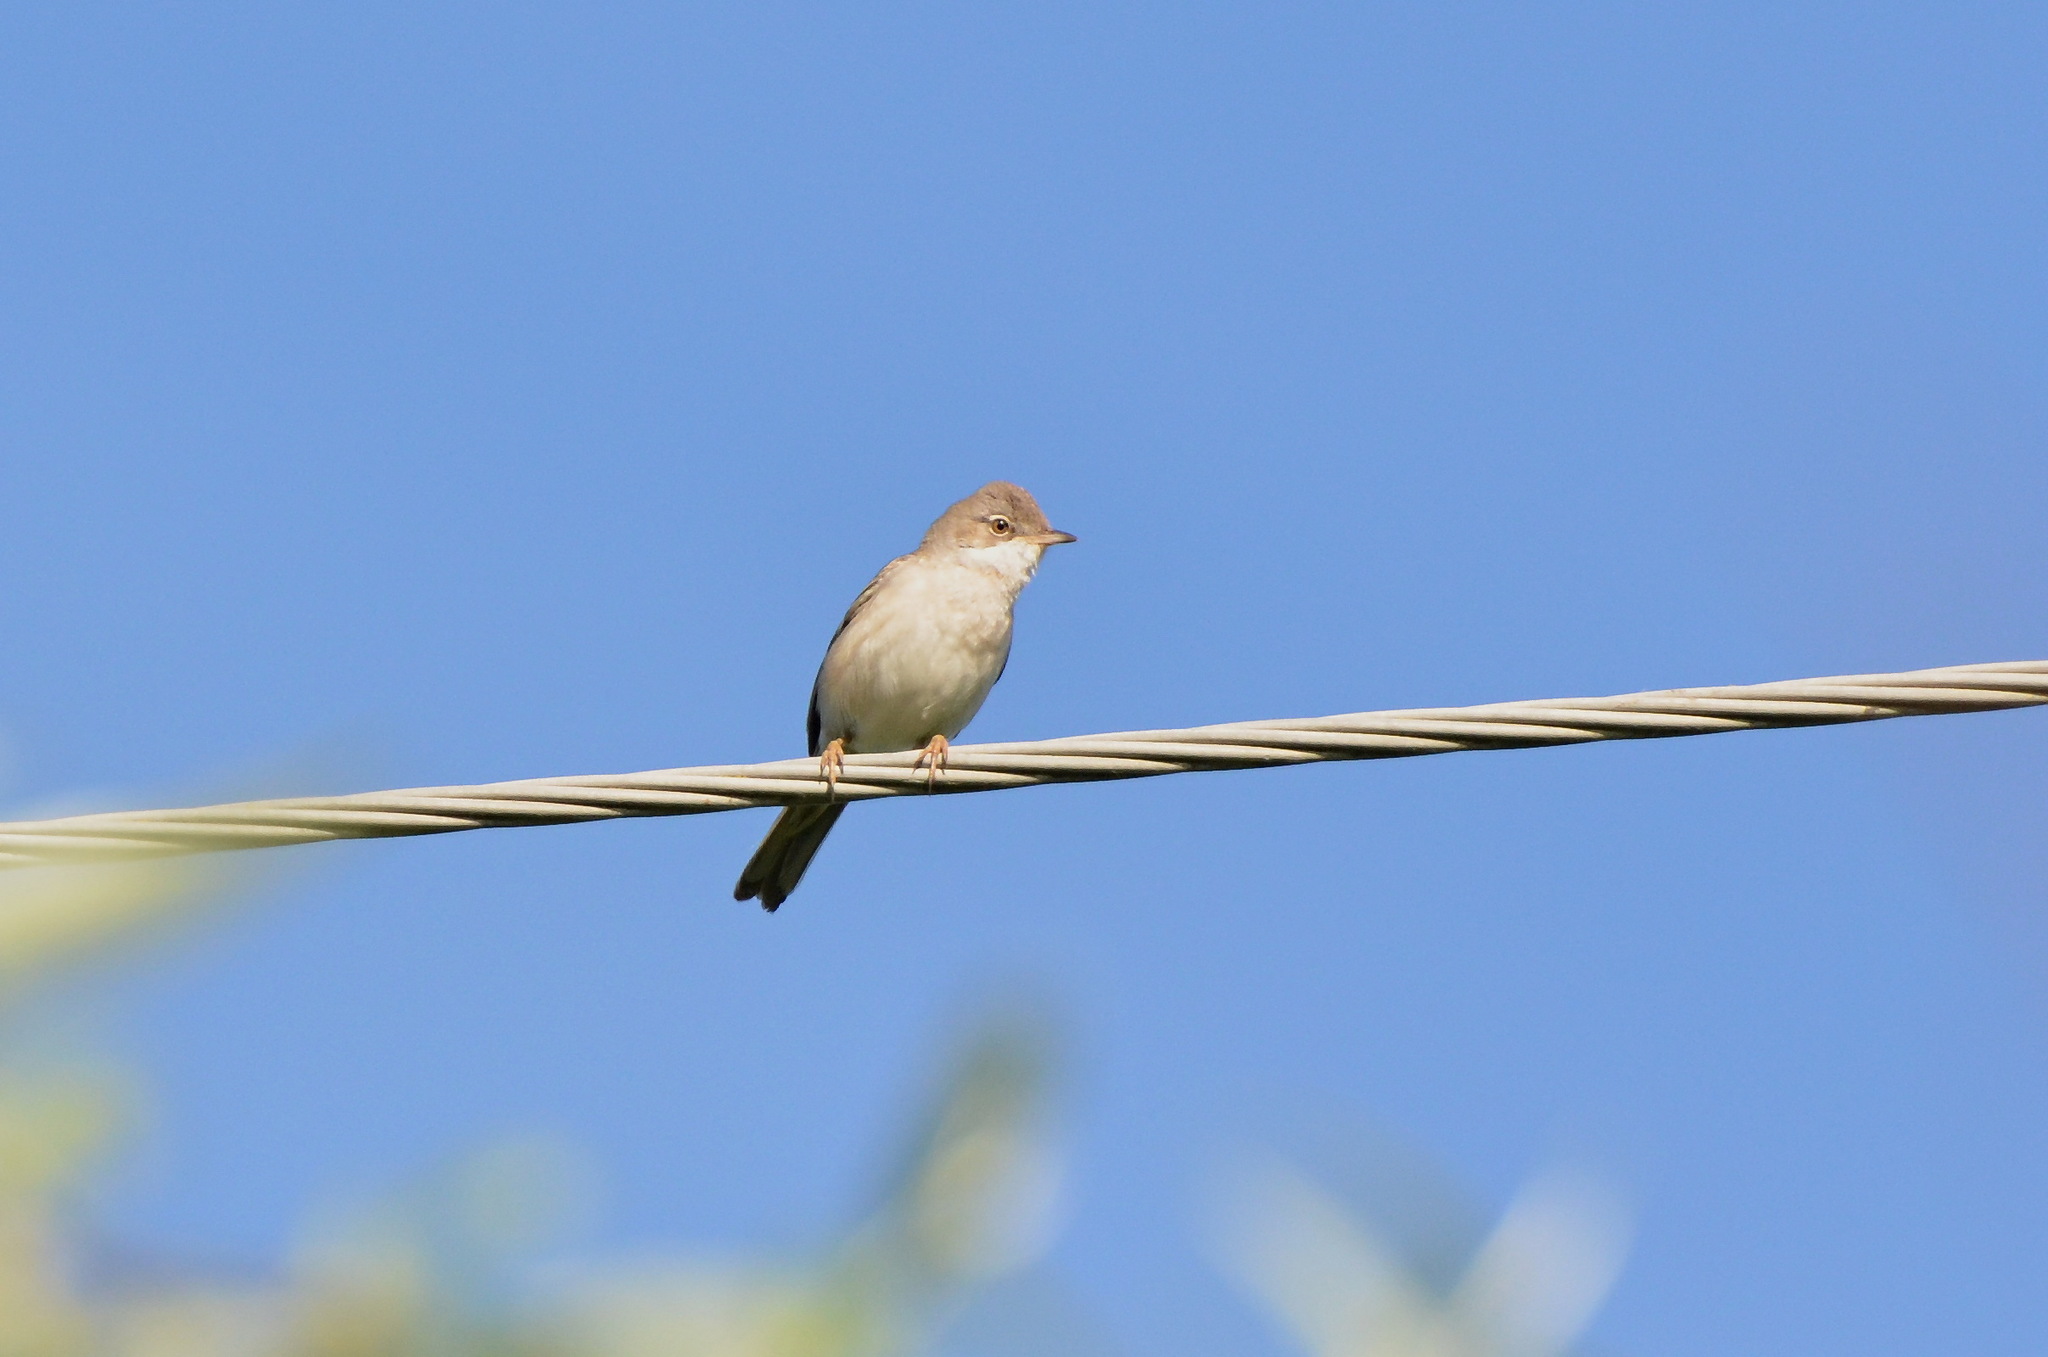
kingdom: Animalia
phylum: Chordata
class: Aves
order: Passeriformes
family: Sylviidae
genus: Sylvia
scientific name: Sylvia communis
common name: Common whitethroat
